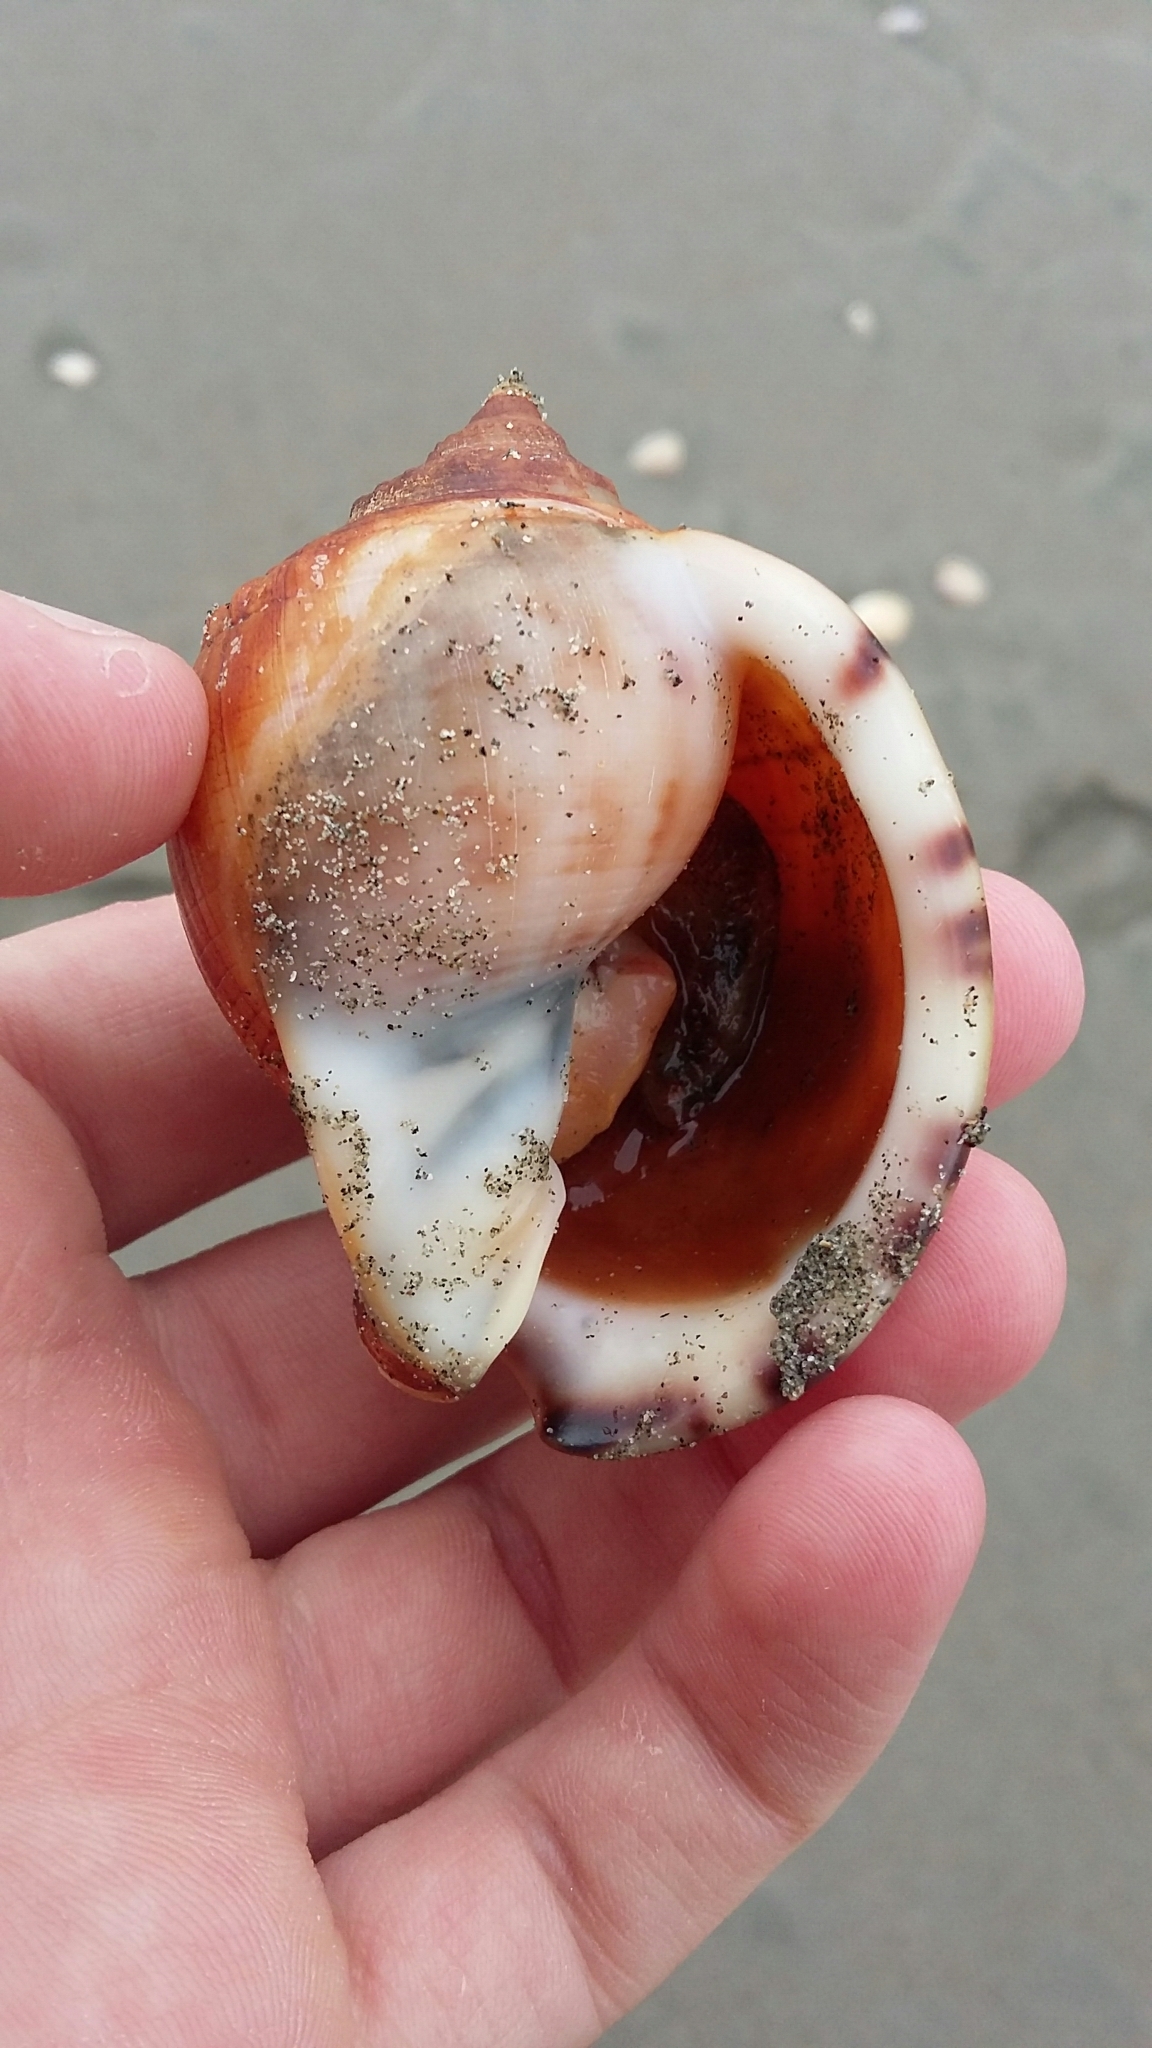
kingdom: Animalia
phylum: Mollusca
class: Gastropoda
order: Littorinimorpha
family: Cassidae
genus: Semicassis
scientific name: Semicassis pyrum
